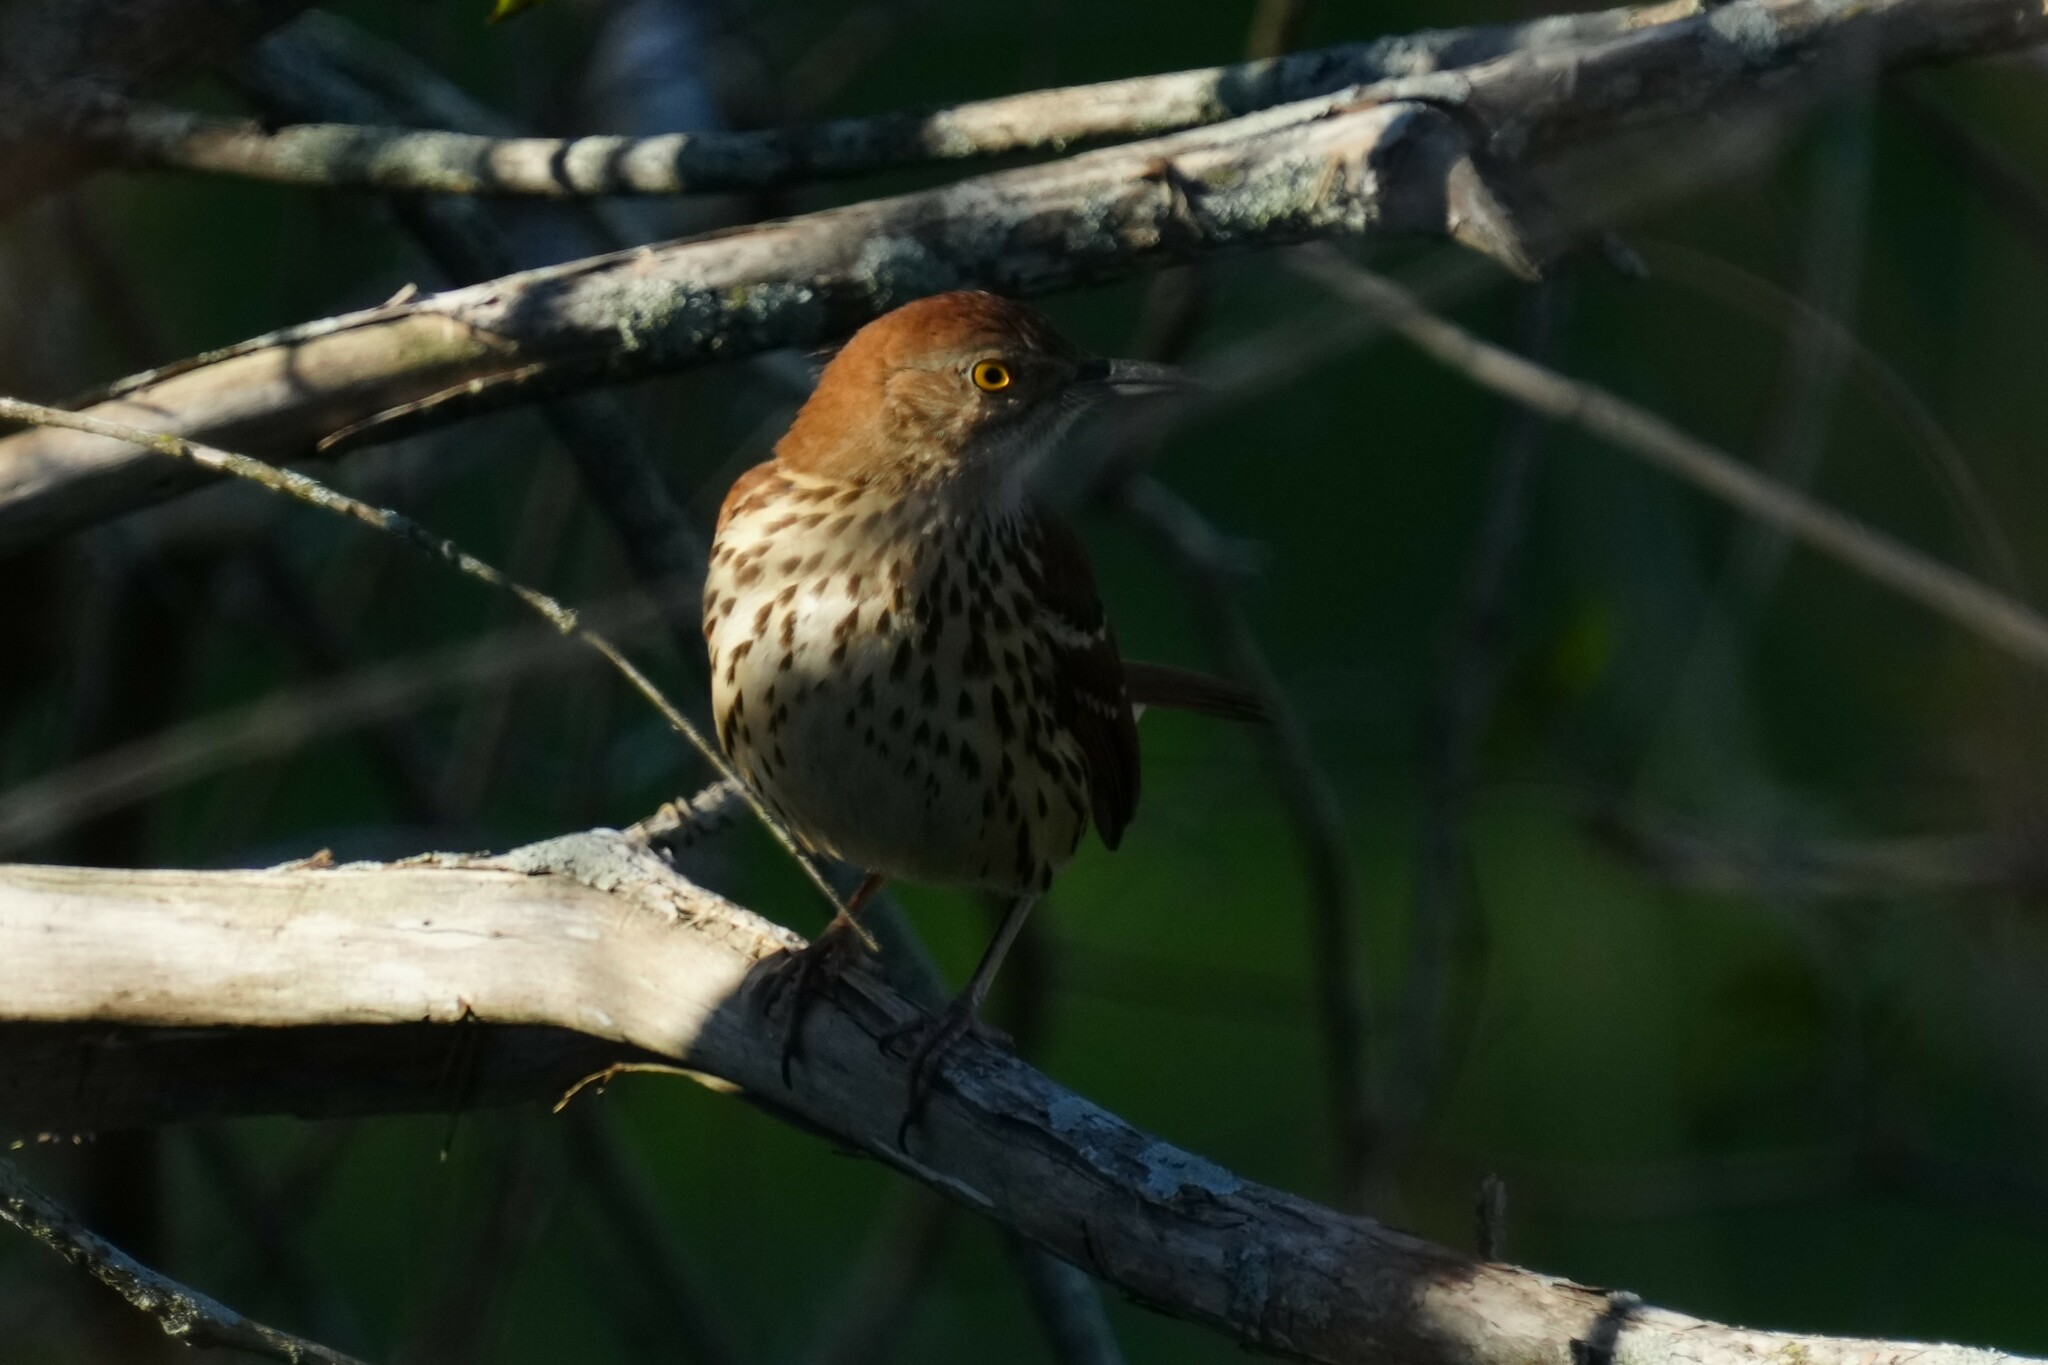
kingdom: Animalia
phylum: Chordata
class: Aves
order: Passeriformes
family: Mimidae
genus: Toxostoma
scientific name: Toxostoma rufum
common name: Brown thrasher
